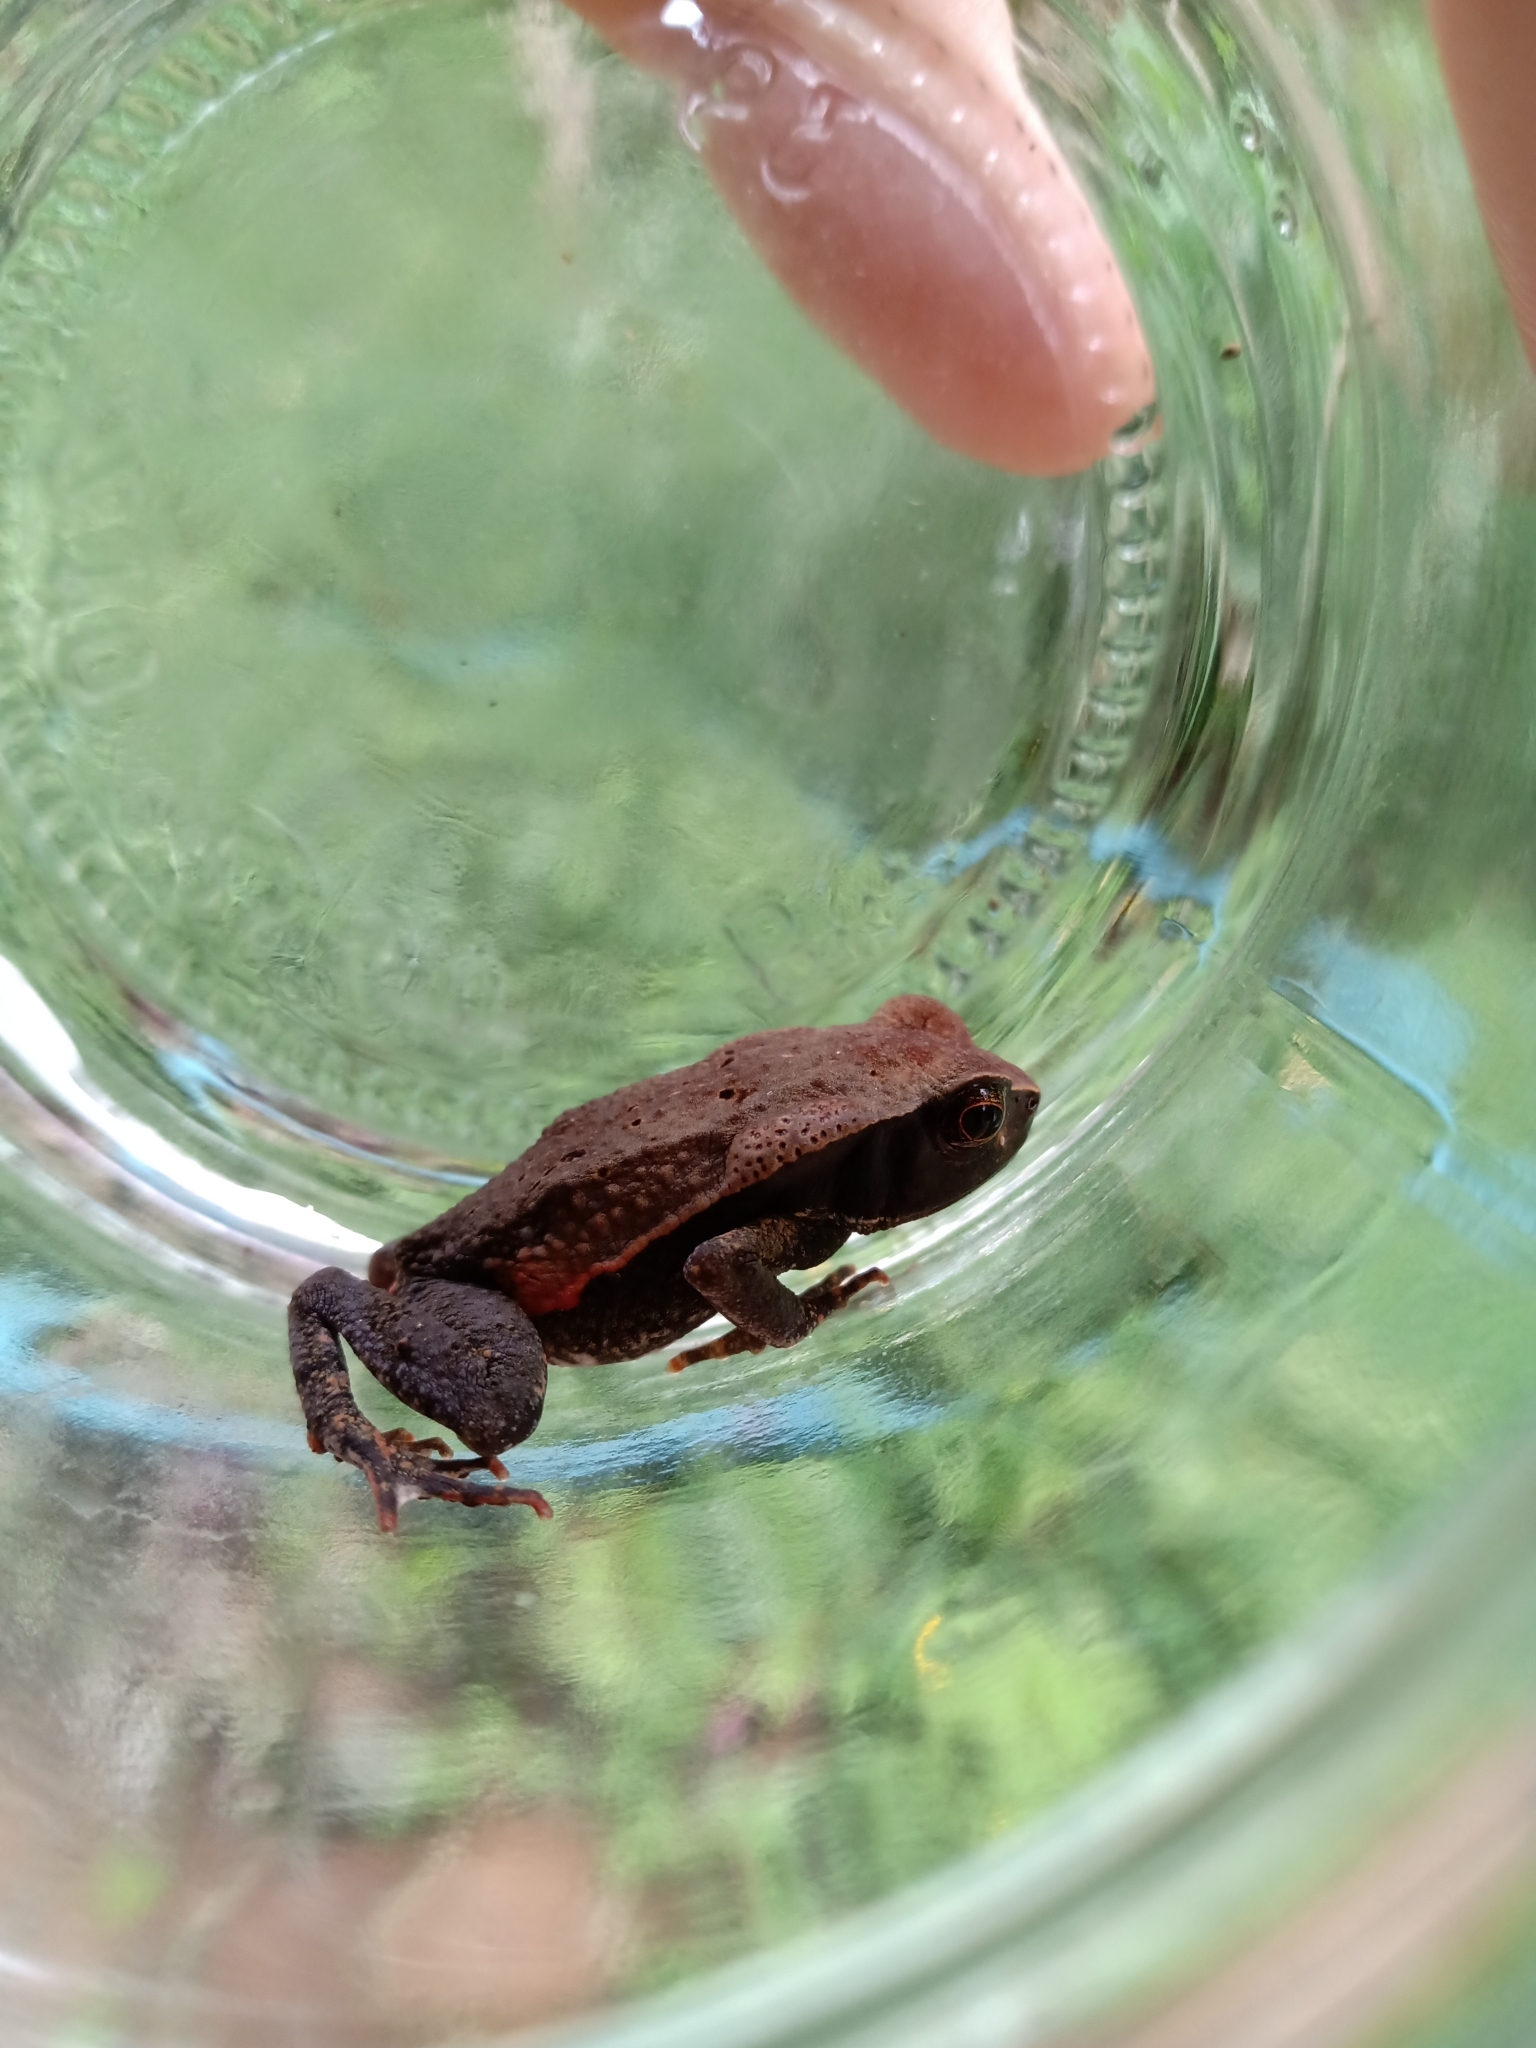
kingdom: Animalia
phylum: Chordata
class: Amphibia
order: Anura
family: Bufonidae
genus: Rhaebo
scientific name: Rhaebo haematiticus
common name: Truando toad
